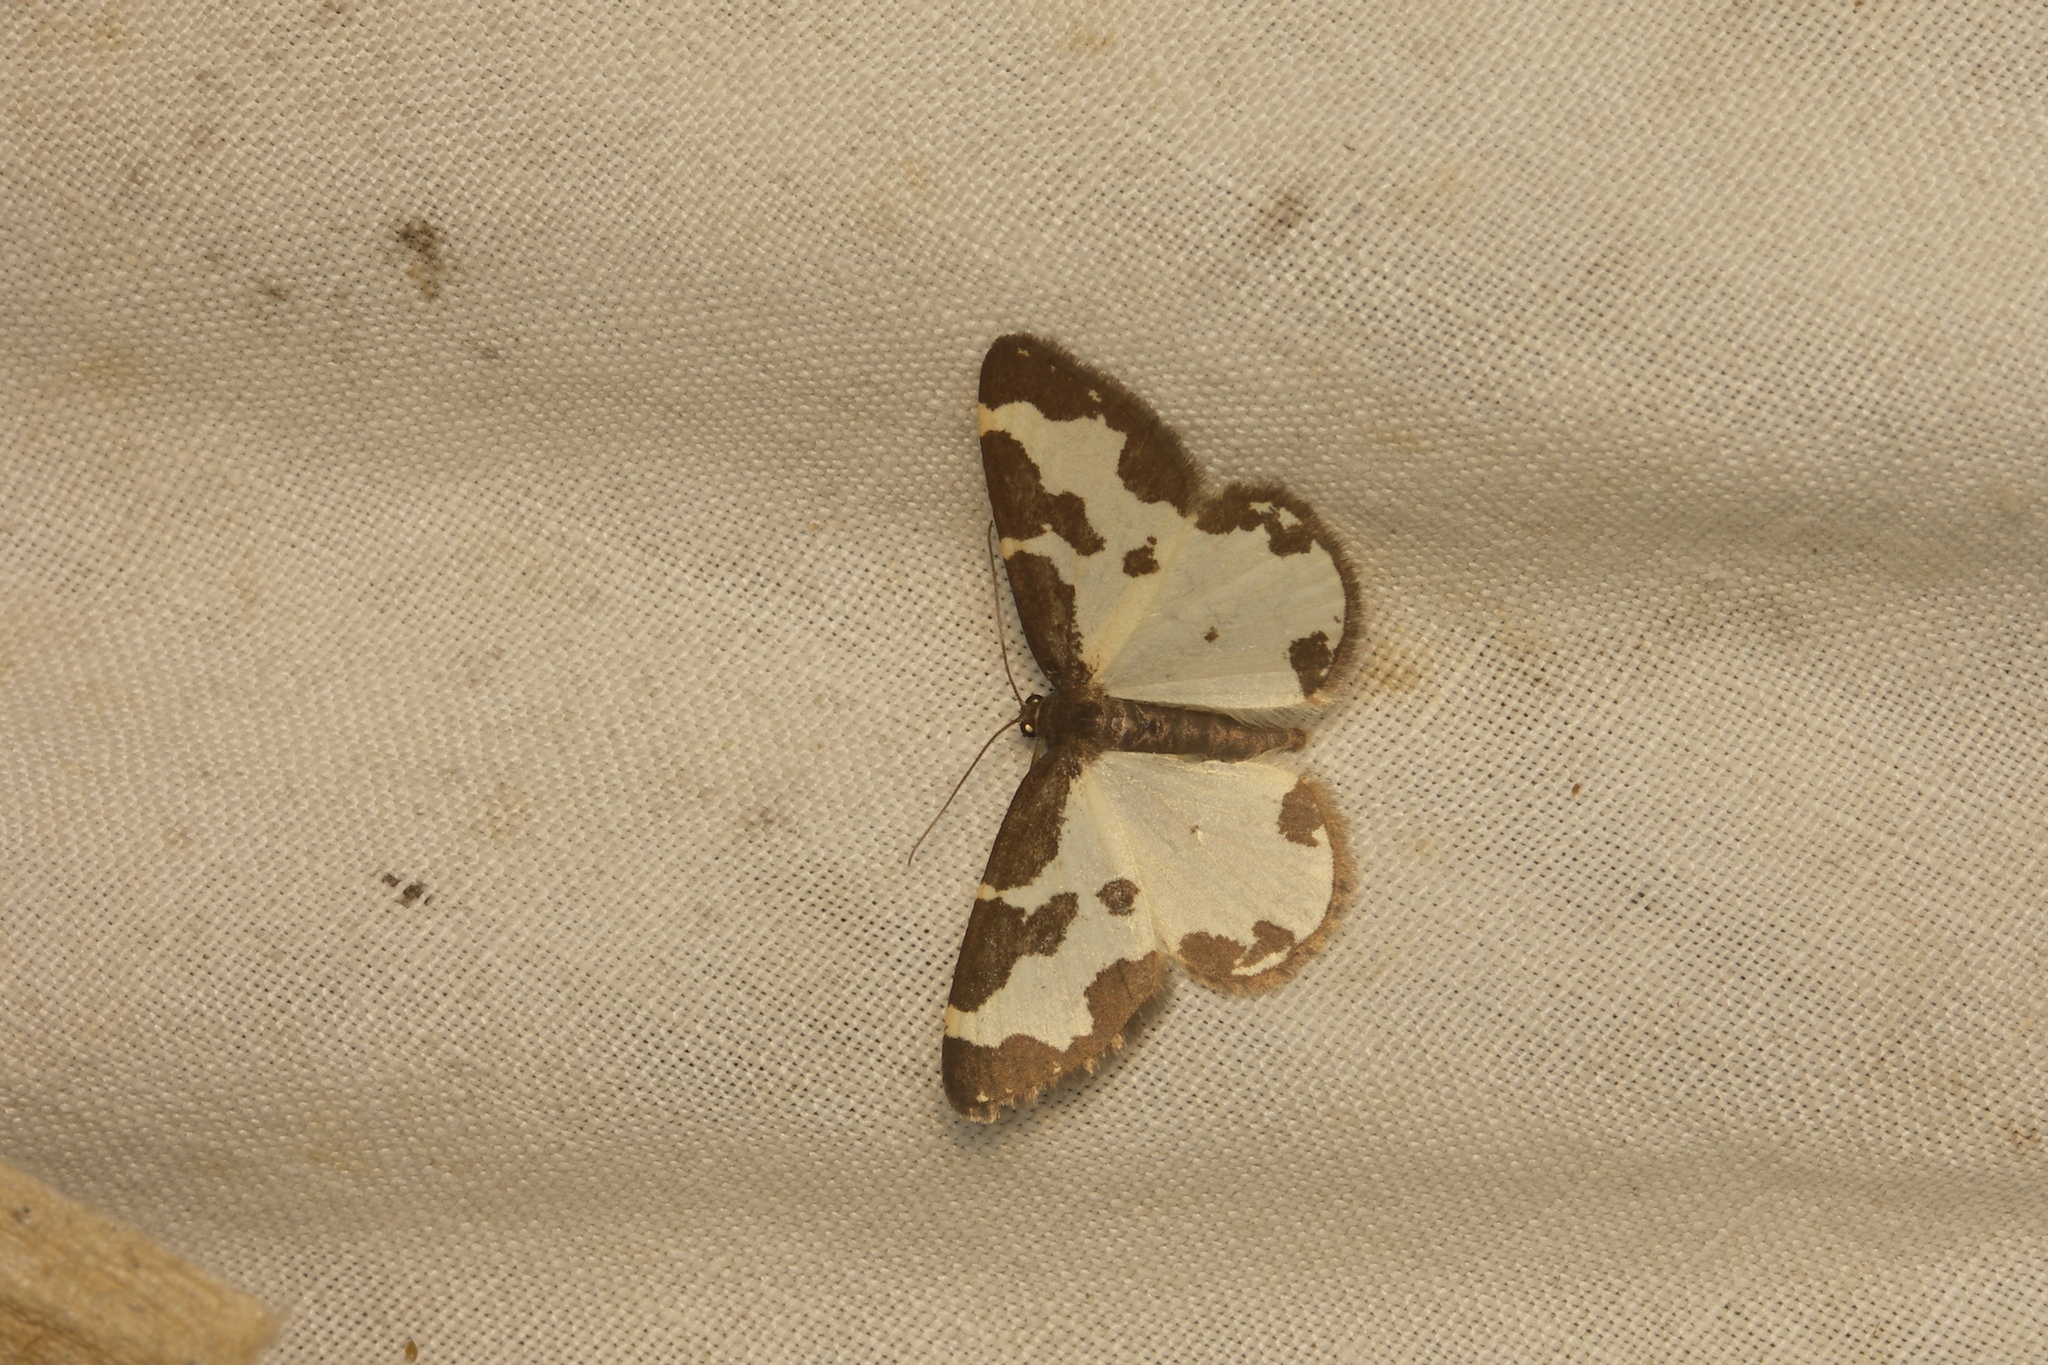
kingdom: Animalia
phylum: Arthropoda
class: Insecta
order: Lepidoptera
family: Geometridae
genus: Lomaspilis
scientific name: Lomaspilis marginata
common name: Clouded border
